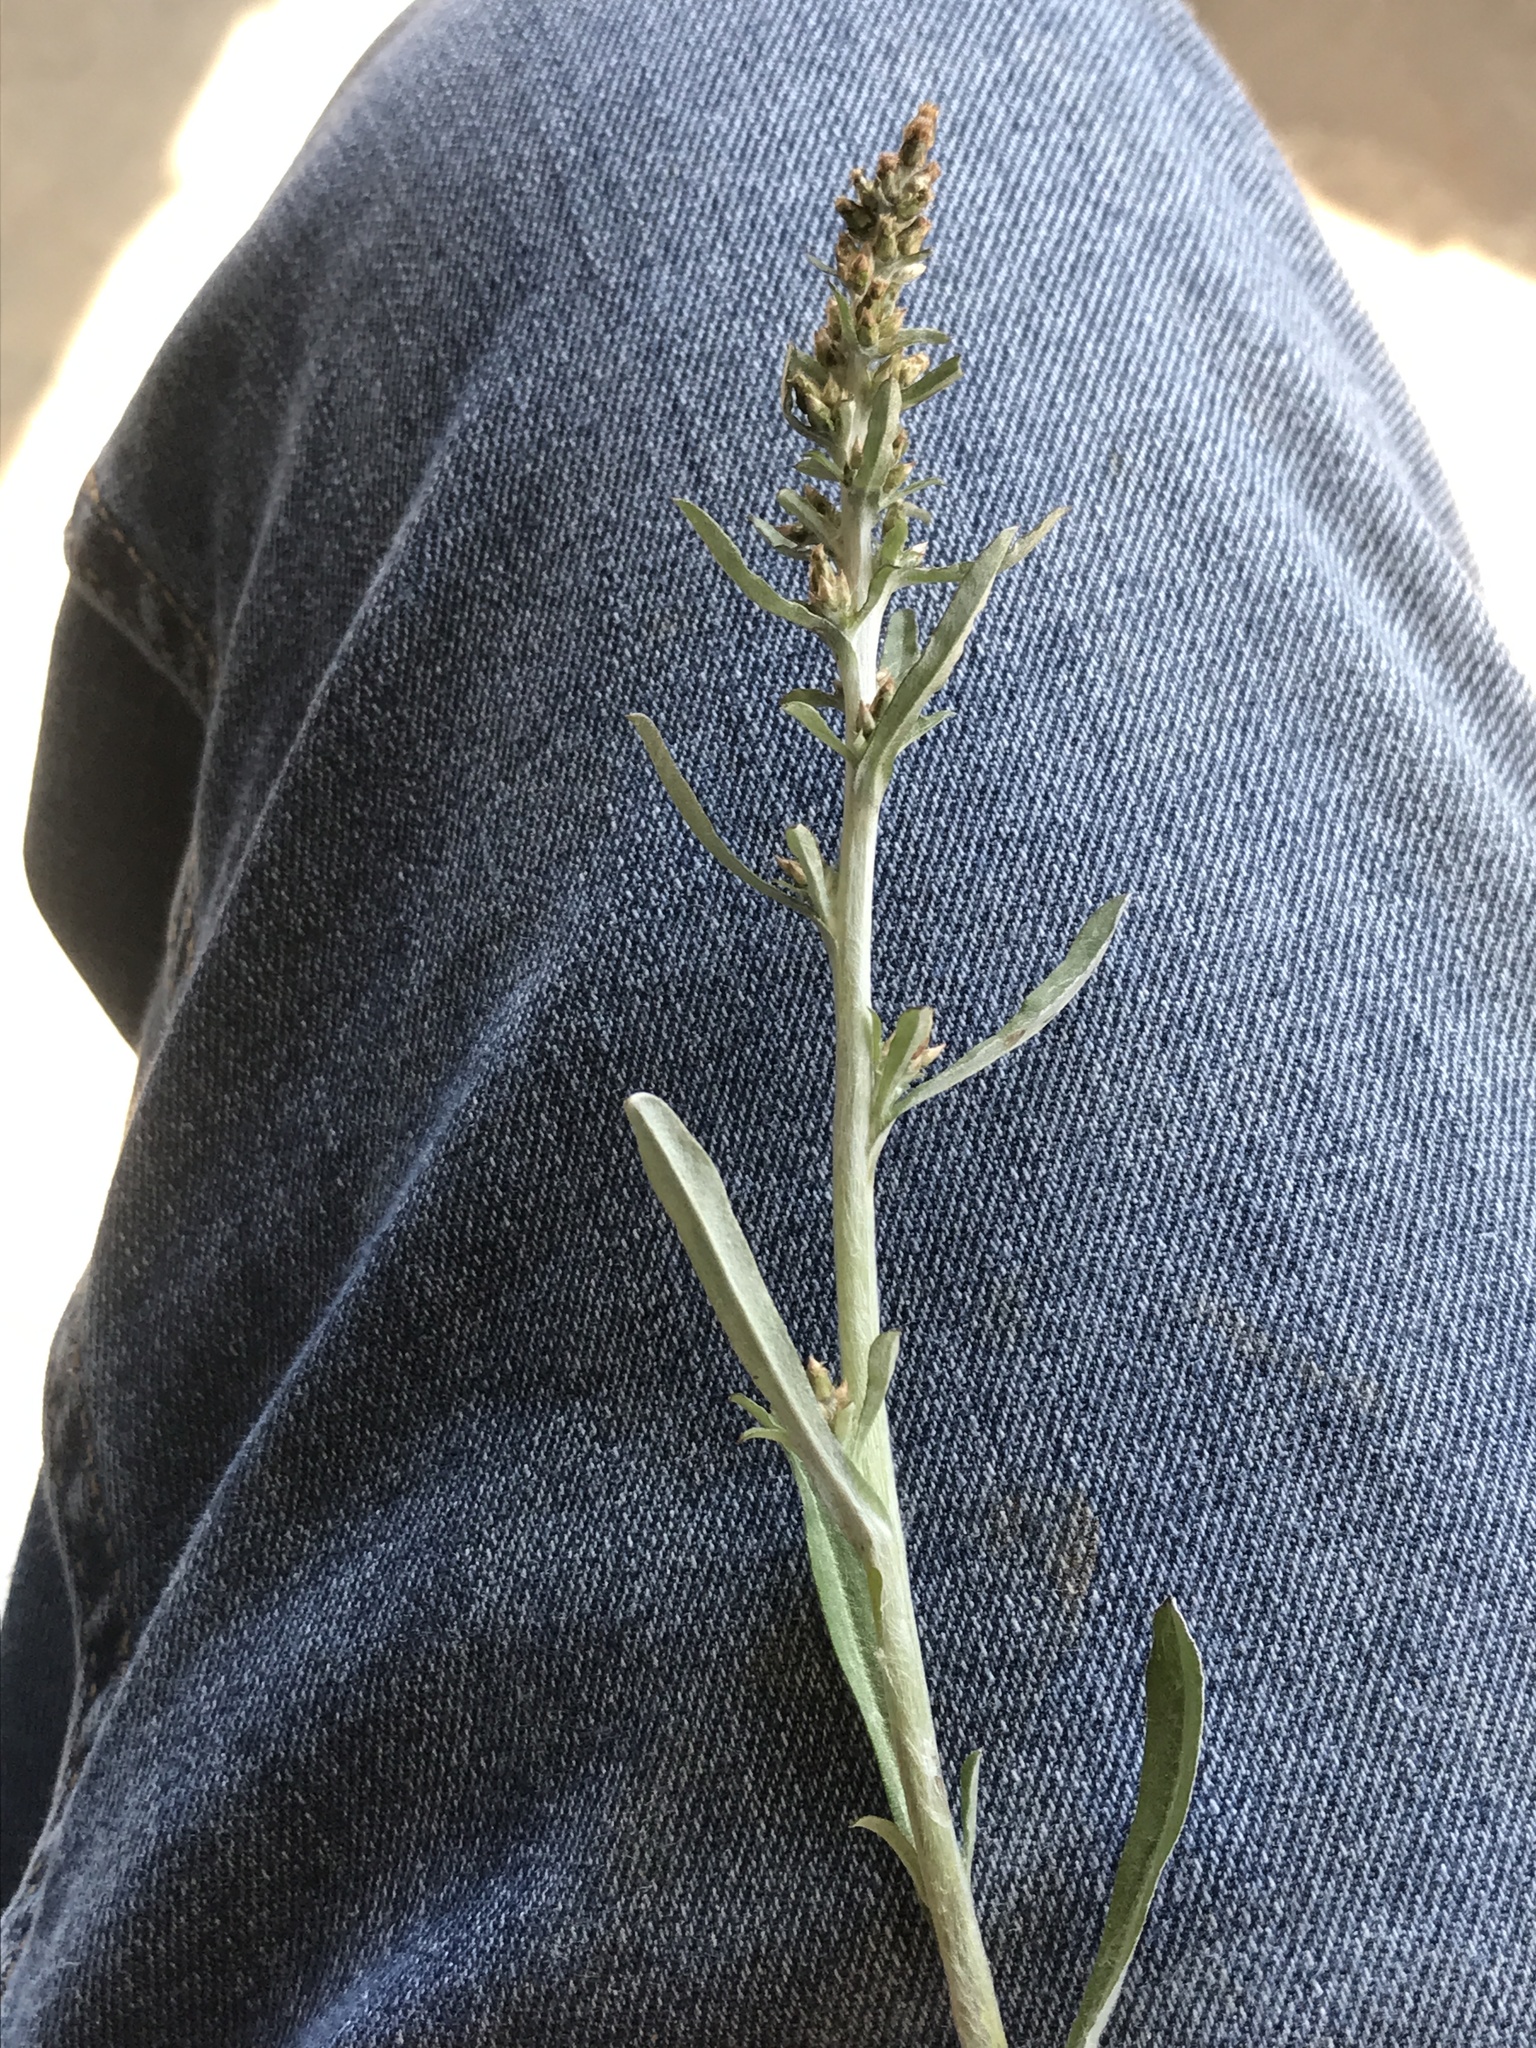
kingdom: Plantae
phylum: Tracheophyta
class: Magnoliopsida
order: Asterales
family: Asteraceae
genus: Gamochaeta
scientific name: Gamochaeta purpurea
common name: Purple cudweed
